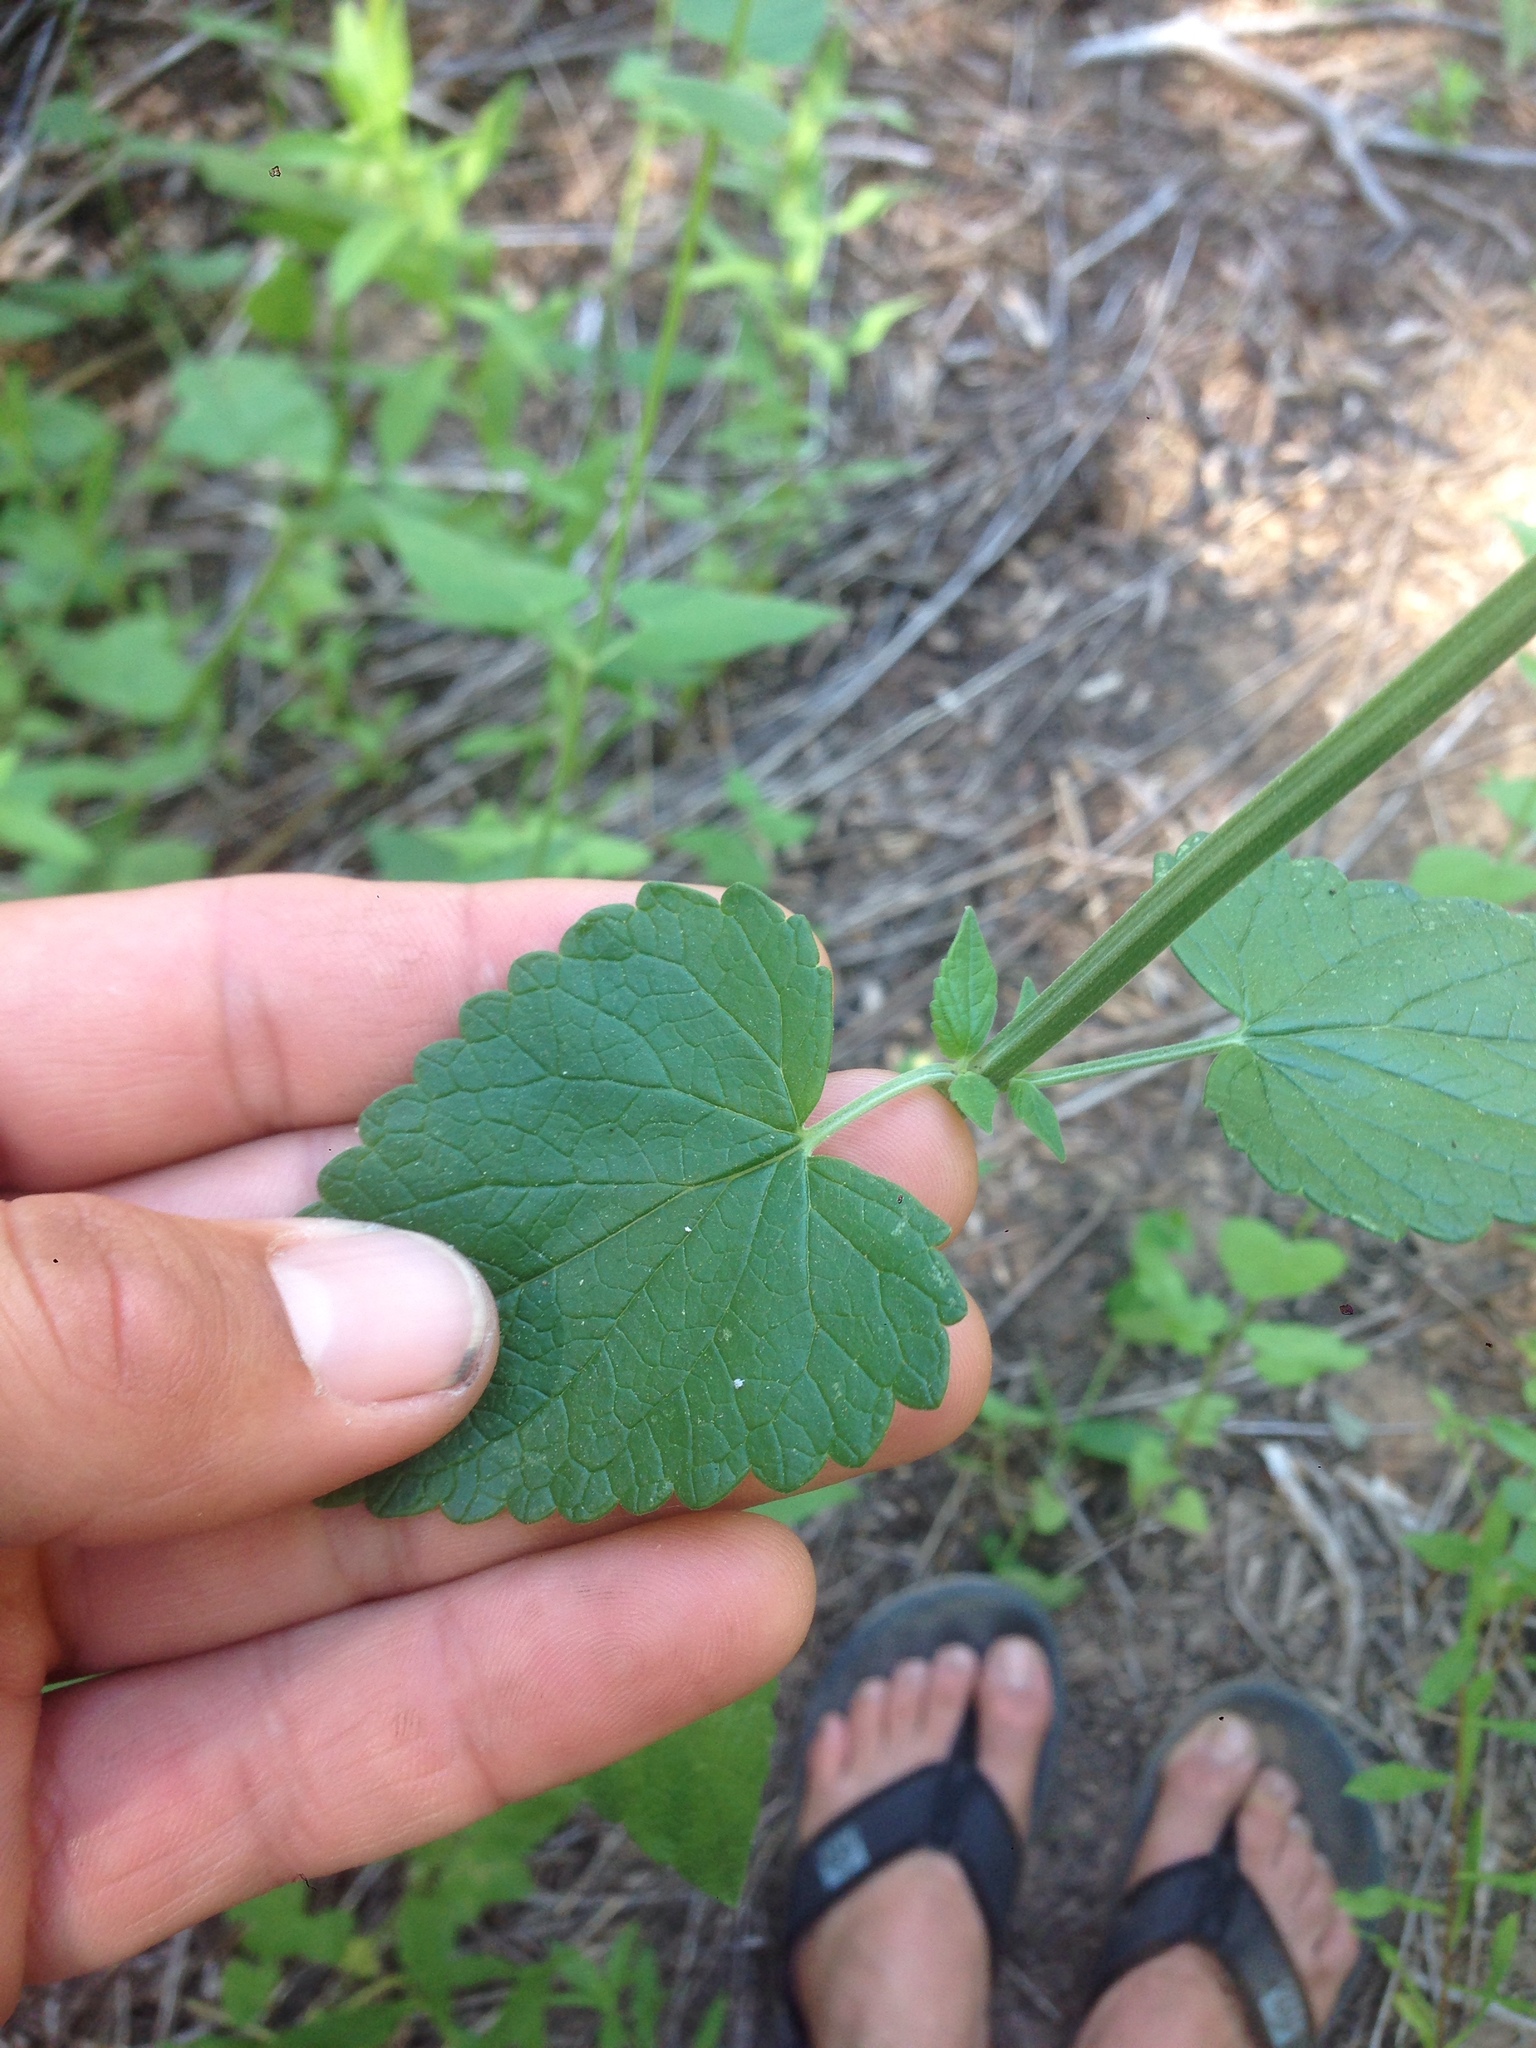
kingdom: Plantae
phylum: Tracheophyta
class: Magnoliopsida
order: Lamiales
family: Lamiaceae
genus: Agastache
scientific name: Agastache urticifolia
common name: Horsemint giant hyssop
